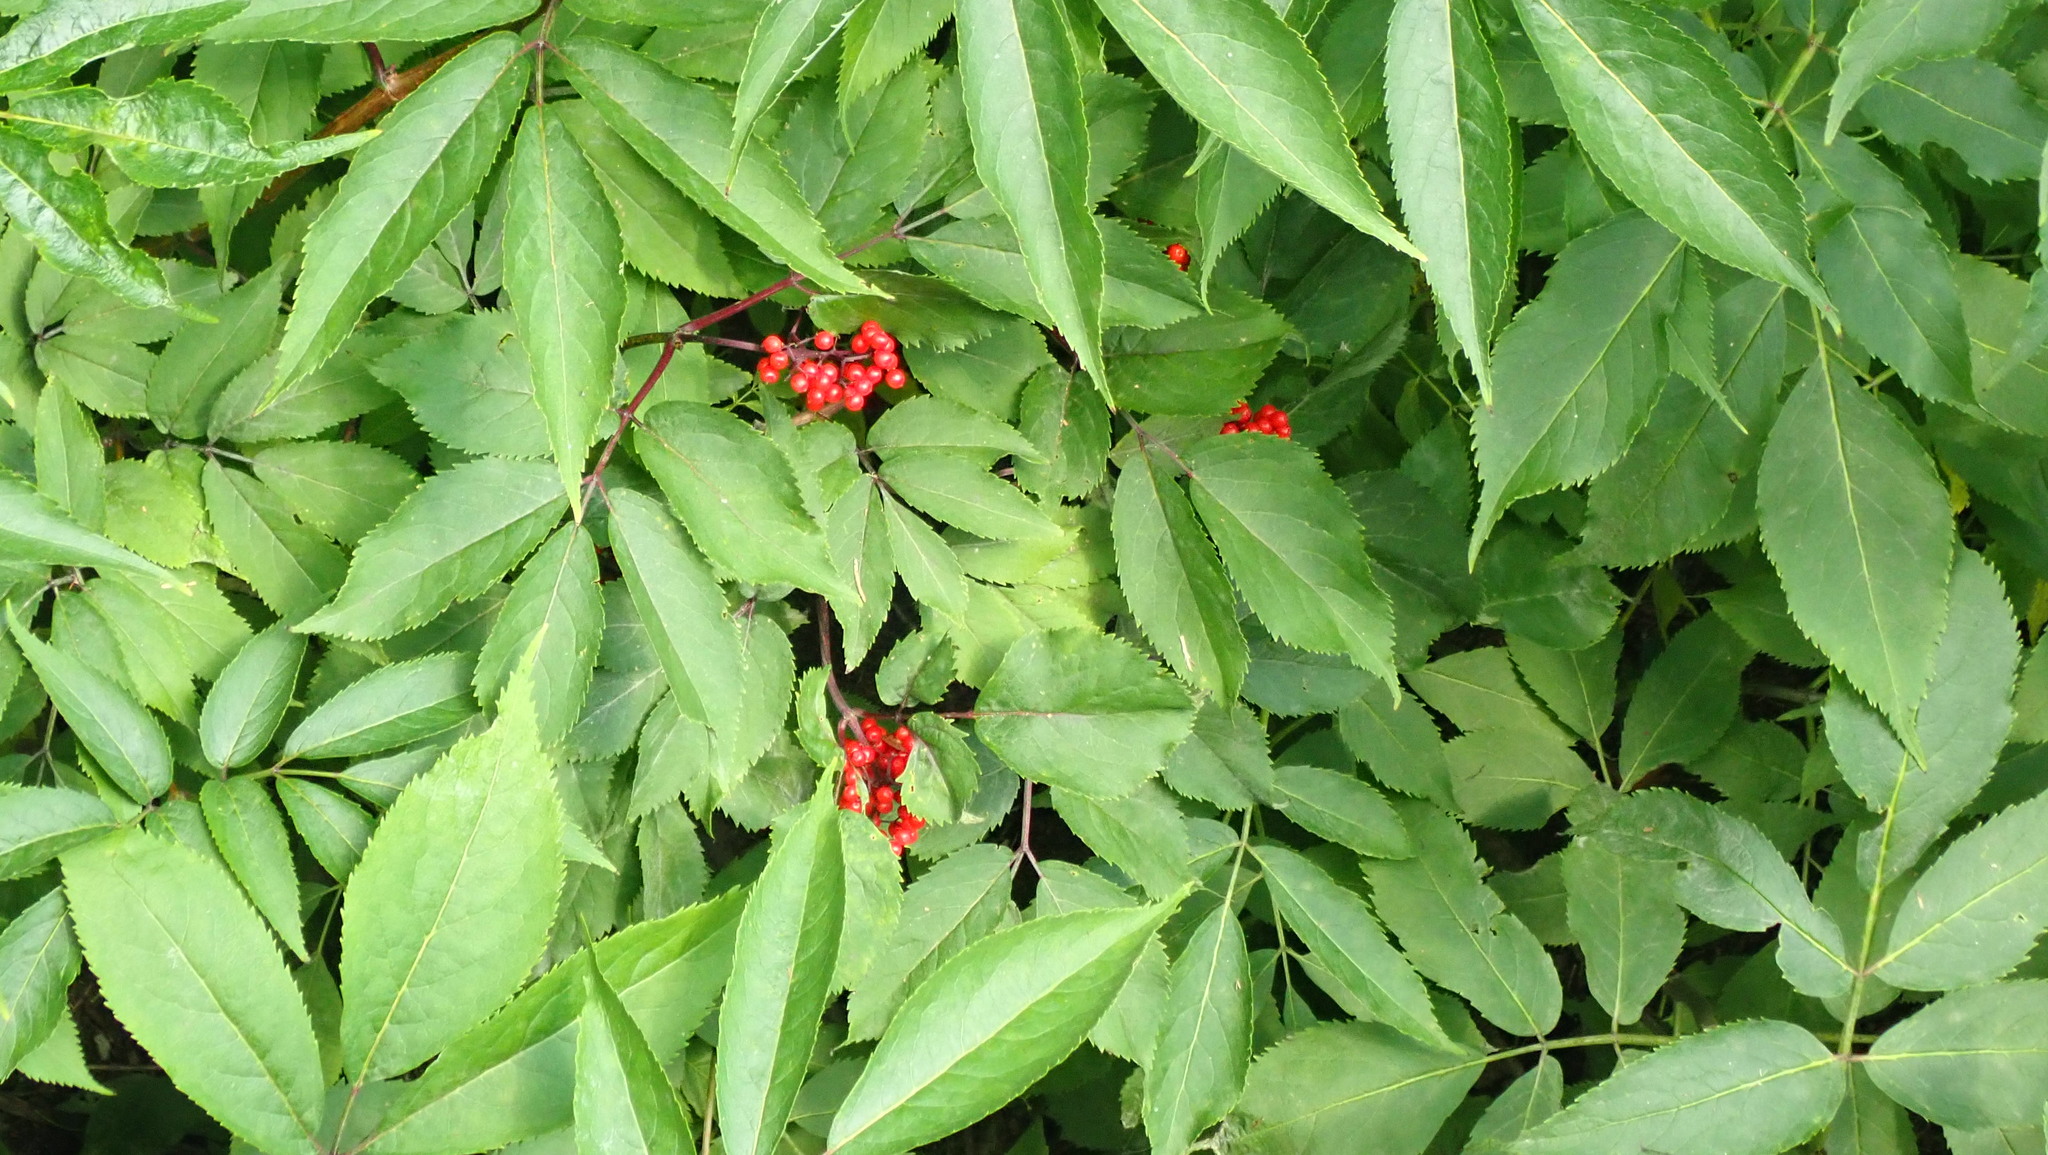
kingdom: Plantae
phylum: Tracheophyta
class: Magnoliopsida
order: Dipsacales
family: Viburnaceae
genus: Sambucus
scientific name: Sambucus racemosa
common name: Red-berried elder
